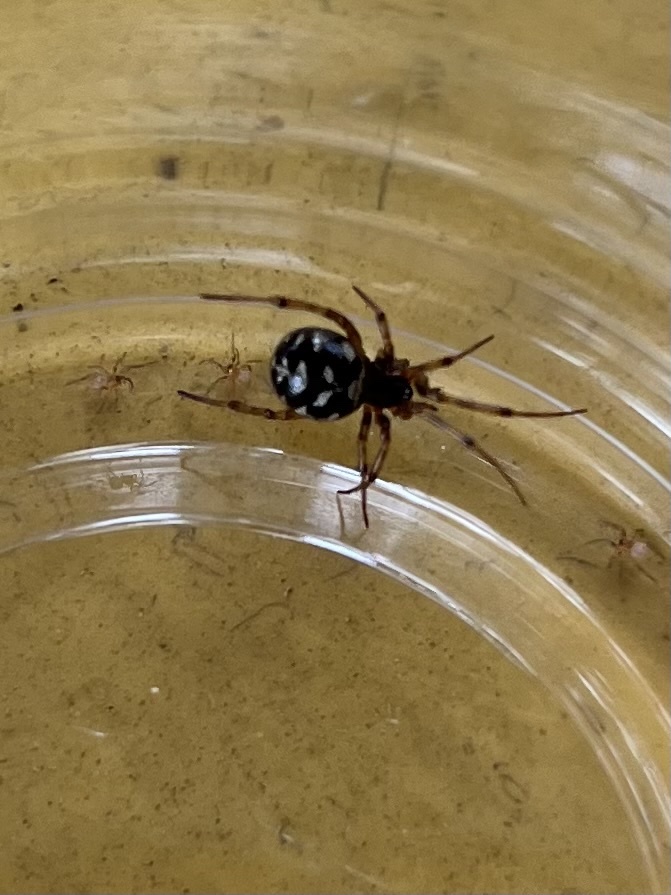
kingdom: Animalia
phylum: Arthropoda
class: Arachnida
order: Araneae
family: Theridiidae
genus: Steatoda
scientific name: Steatoda triangulosa
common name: Triangulate bud spider
